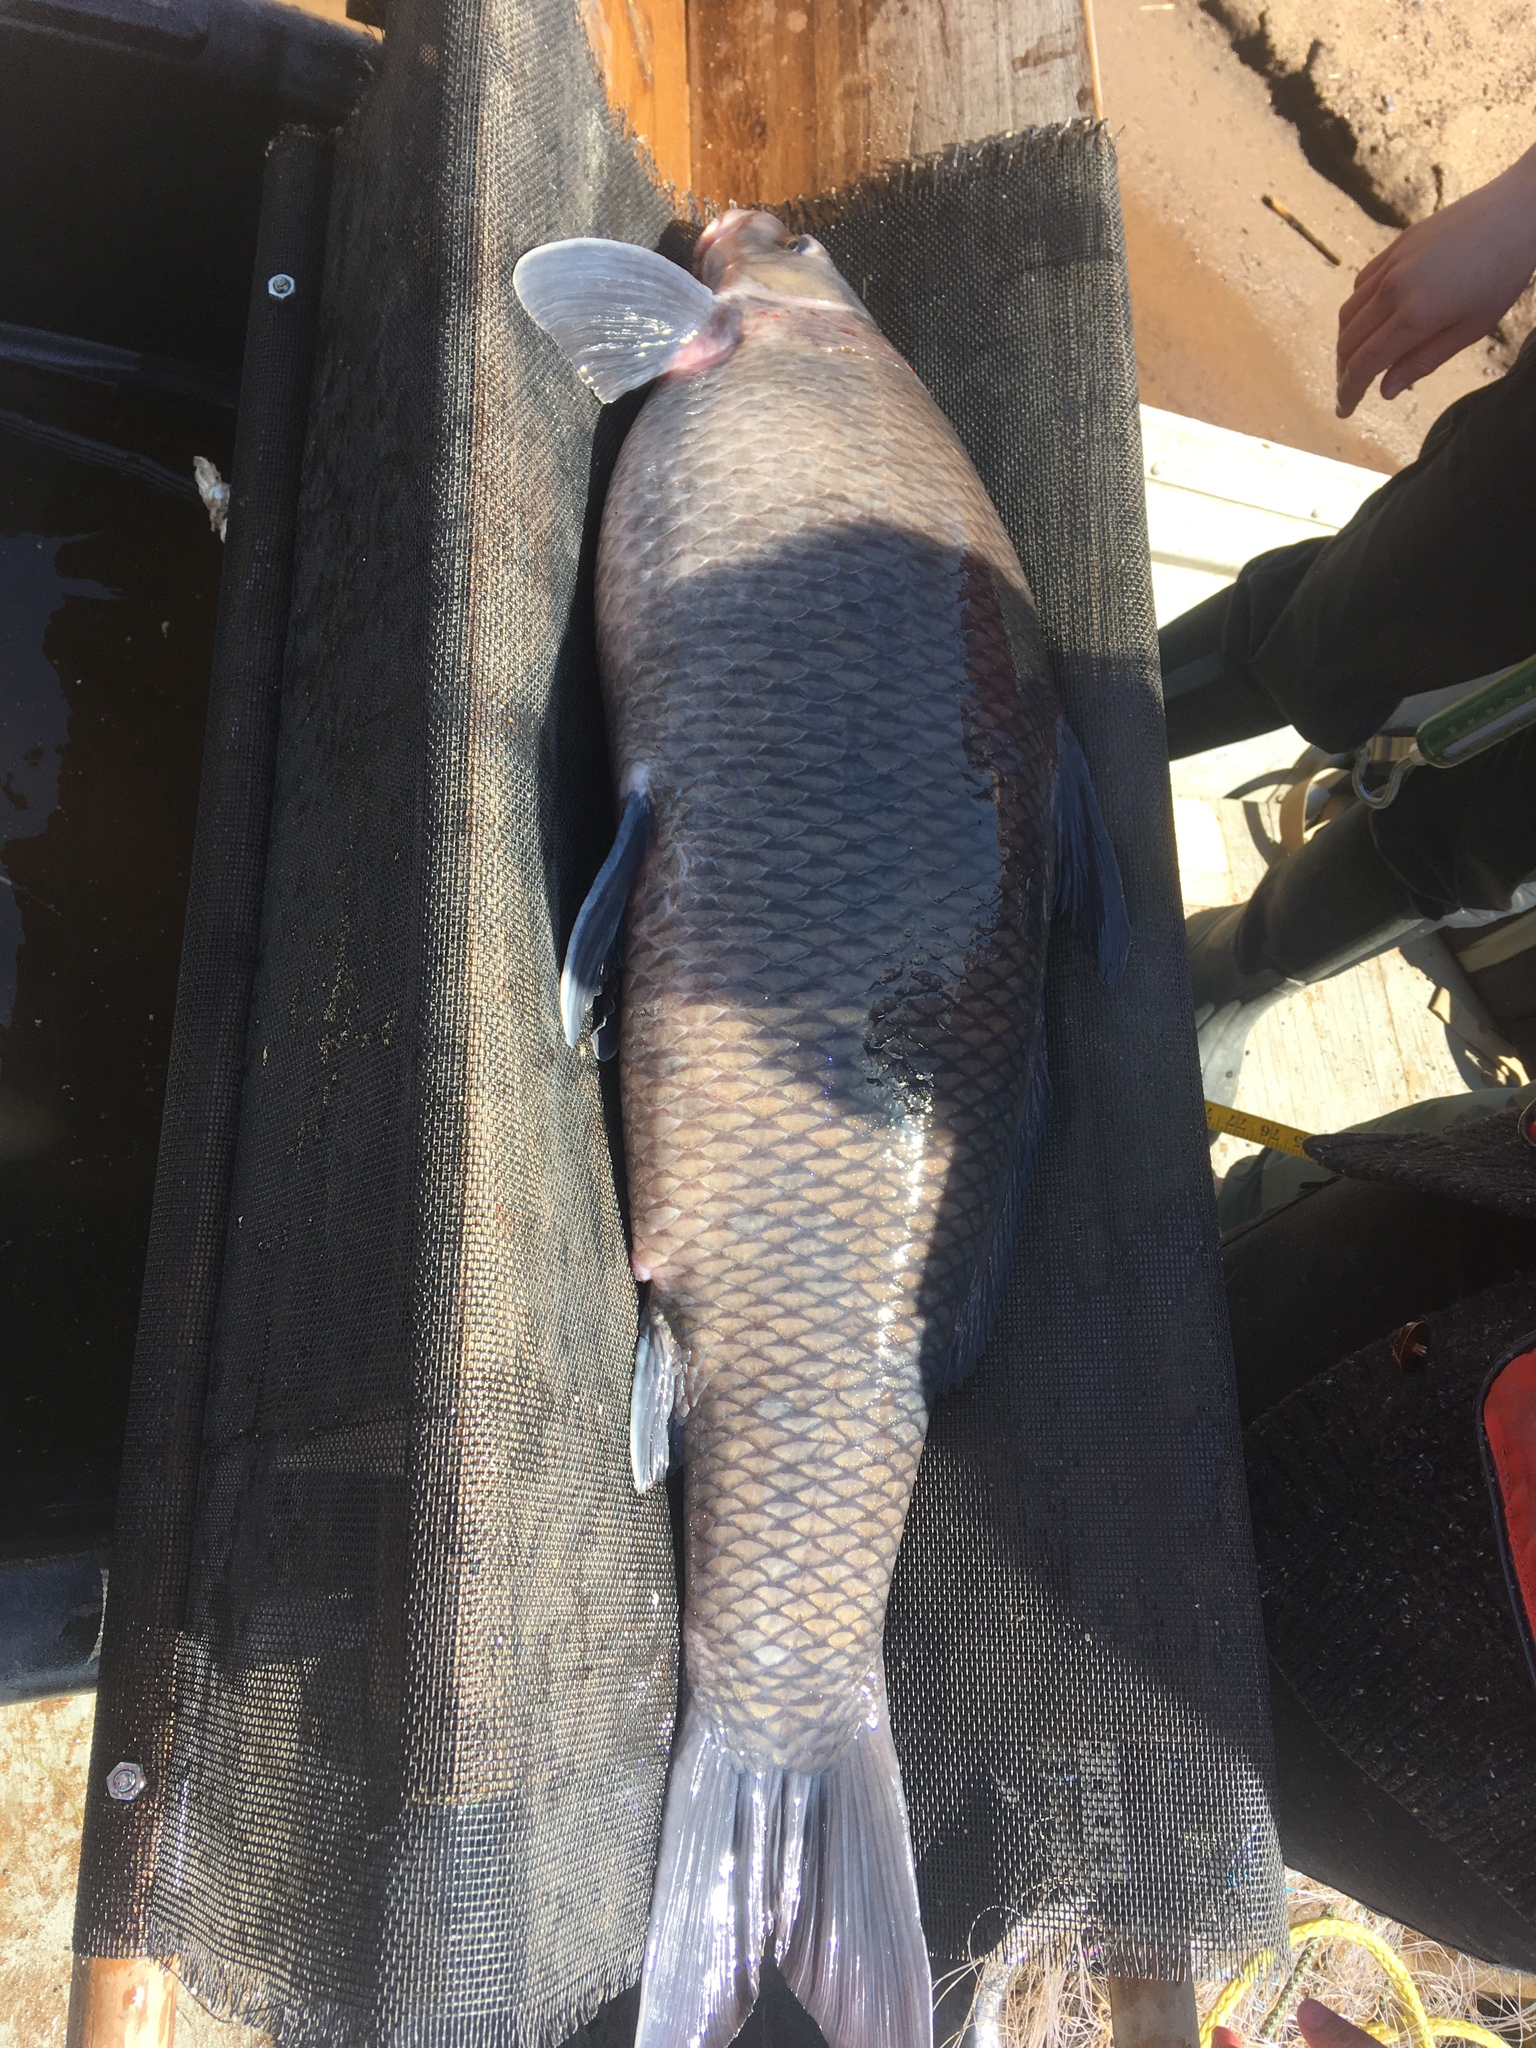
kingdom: Animalia
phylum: Chordata
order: Cypriniformes
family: Catostomidae
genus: Cycleptus
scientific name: Cycleptus elongatus
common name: Blue sucker
